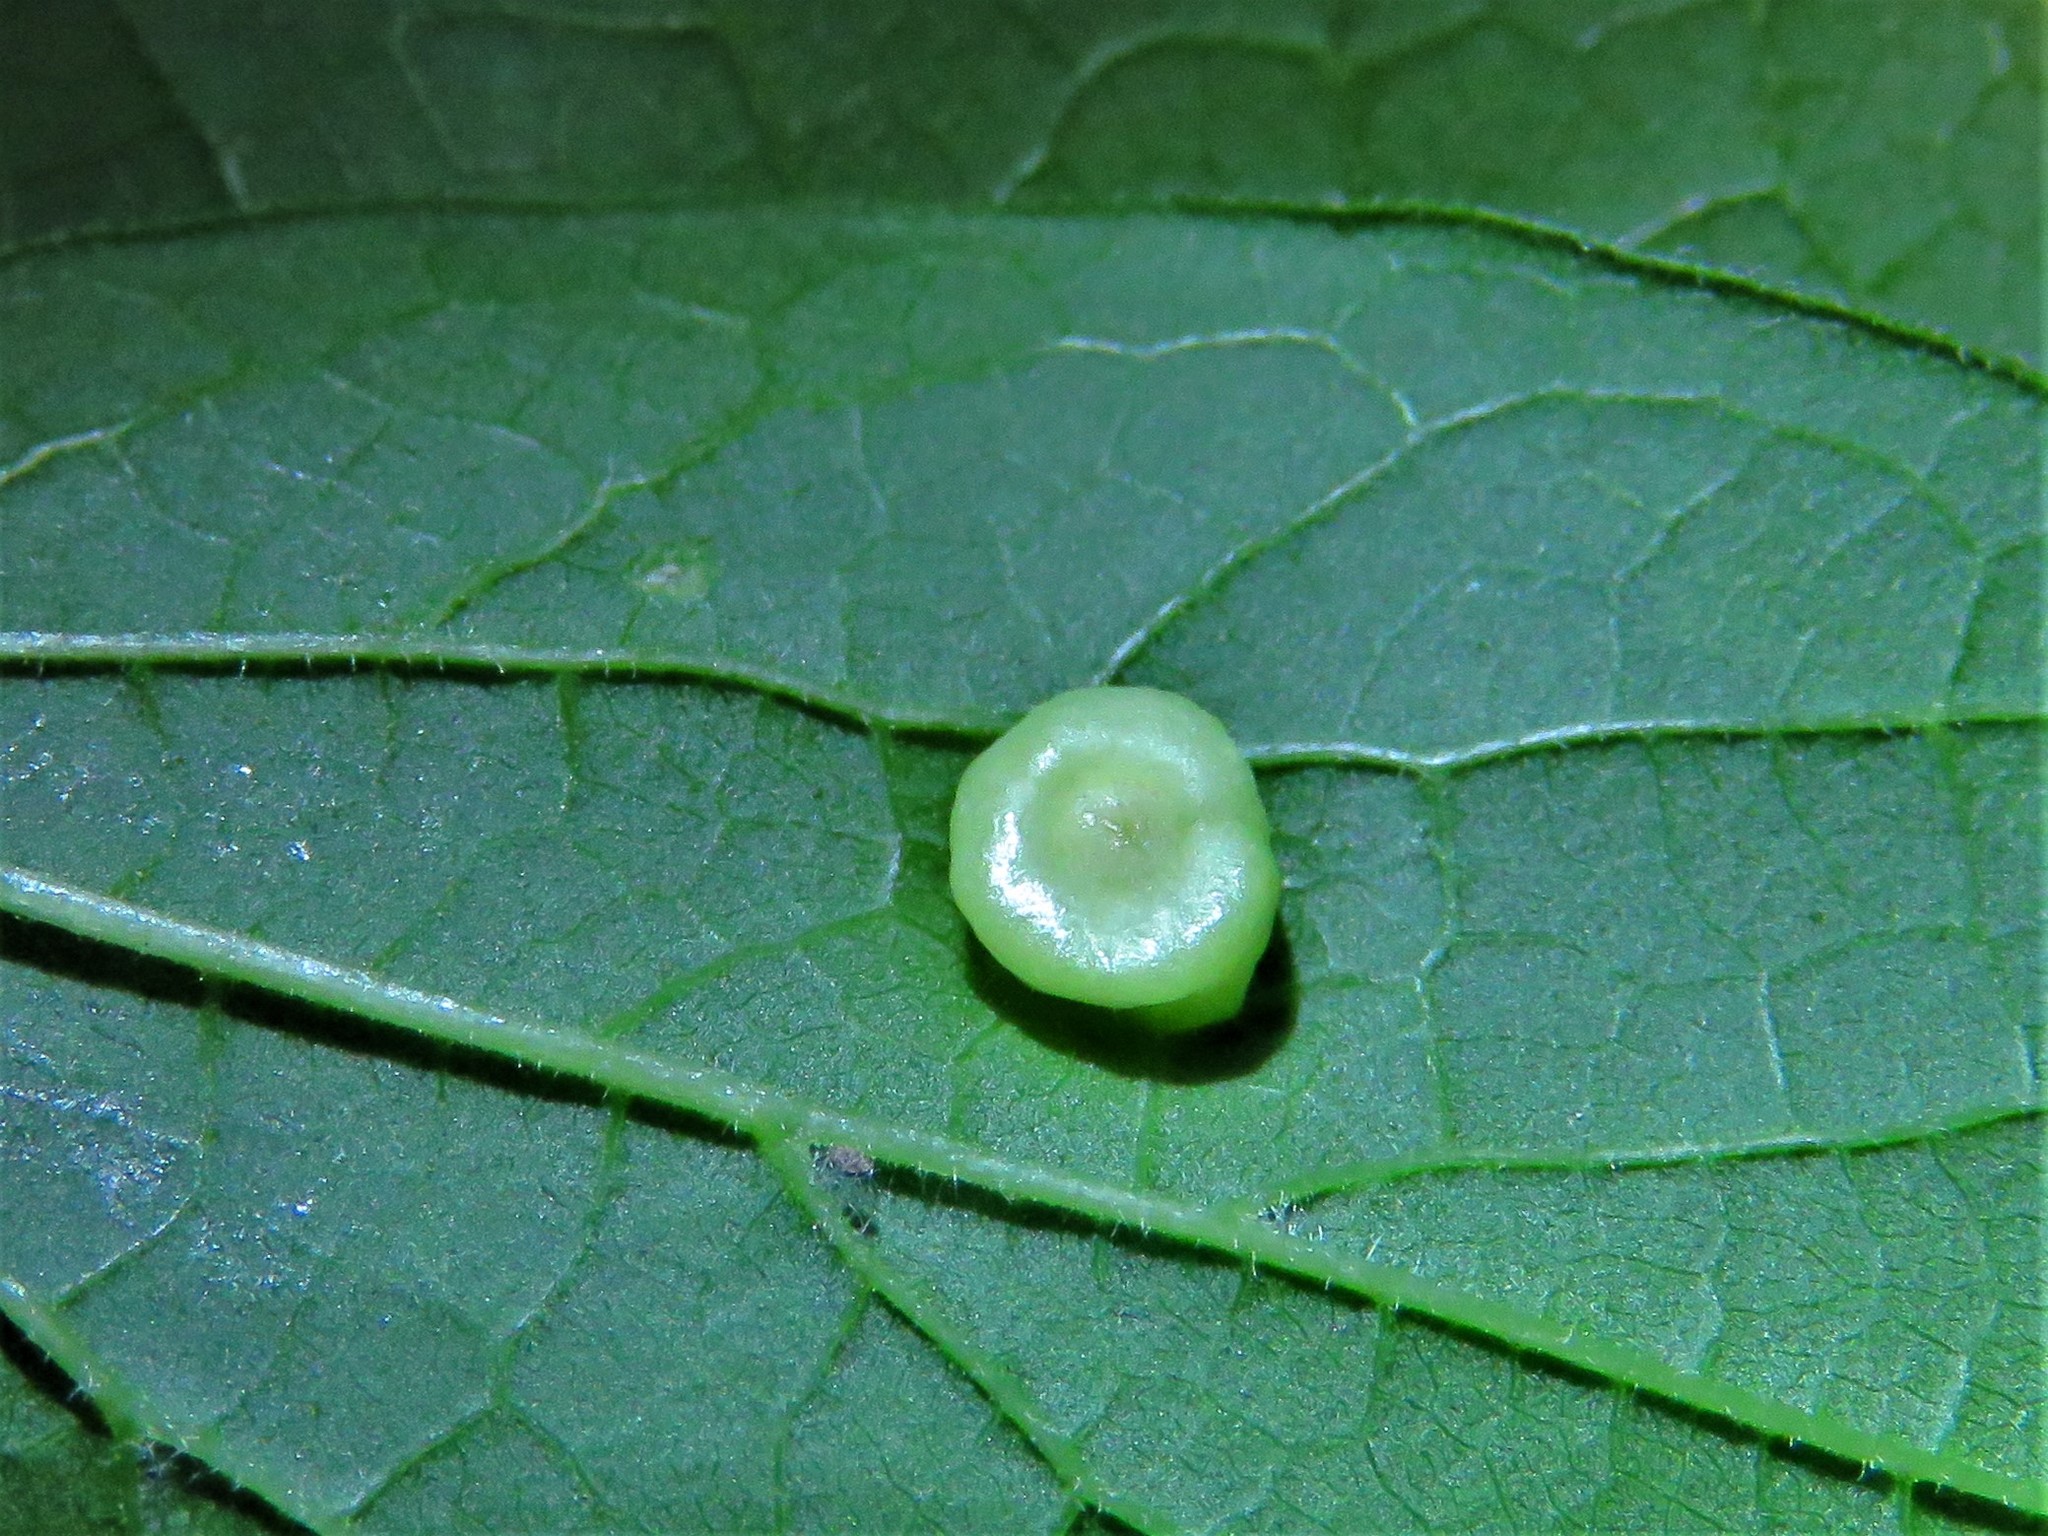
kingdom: Animalia
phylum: Arthropoda
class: Insecta
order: Hemiptera
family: Aphalaridae
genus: Pachypsylla
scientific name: Pachypsylla celtidismamma
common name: Hackberry nipplegall psyllid
